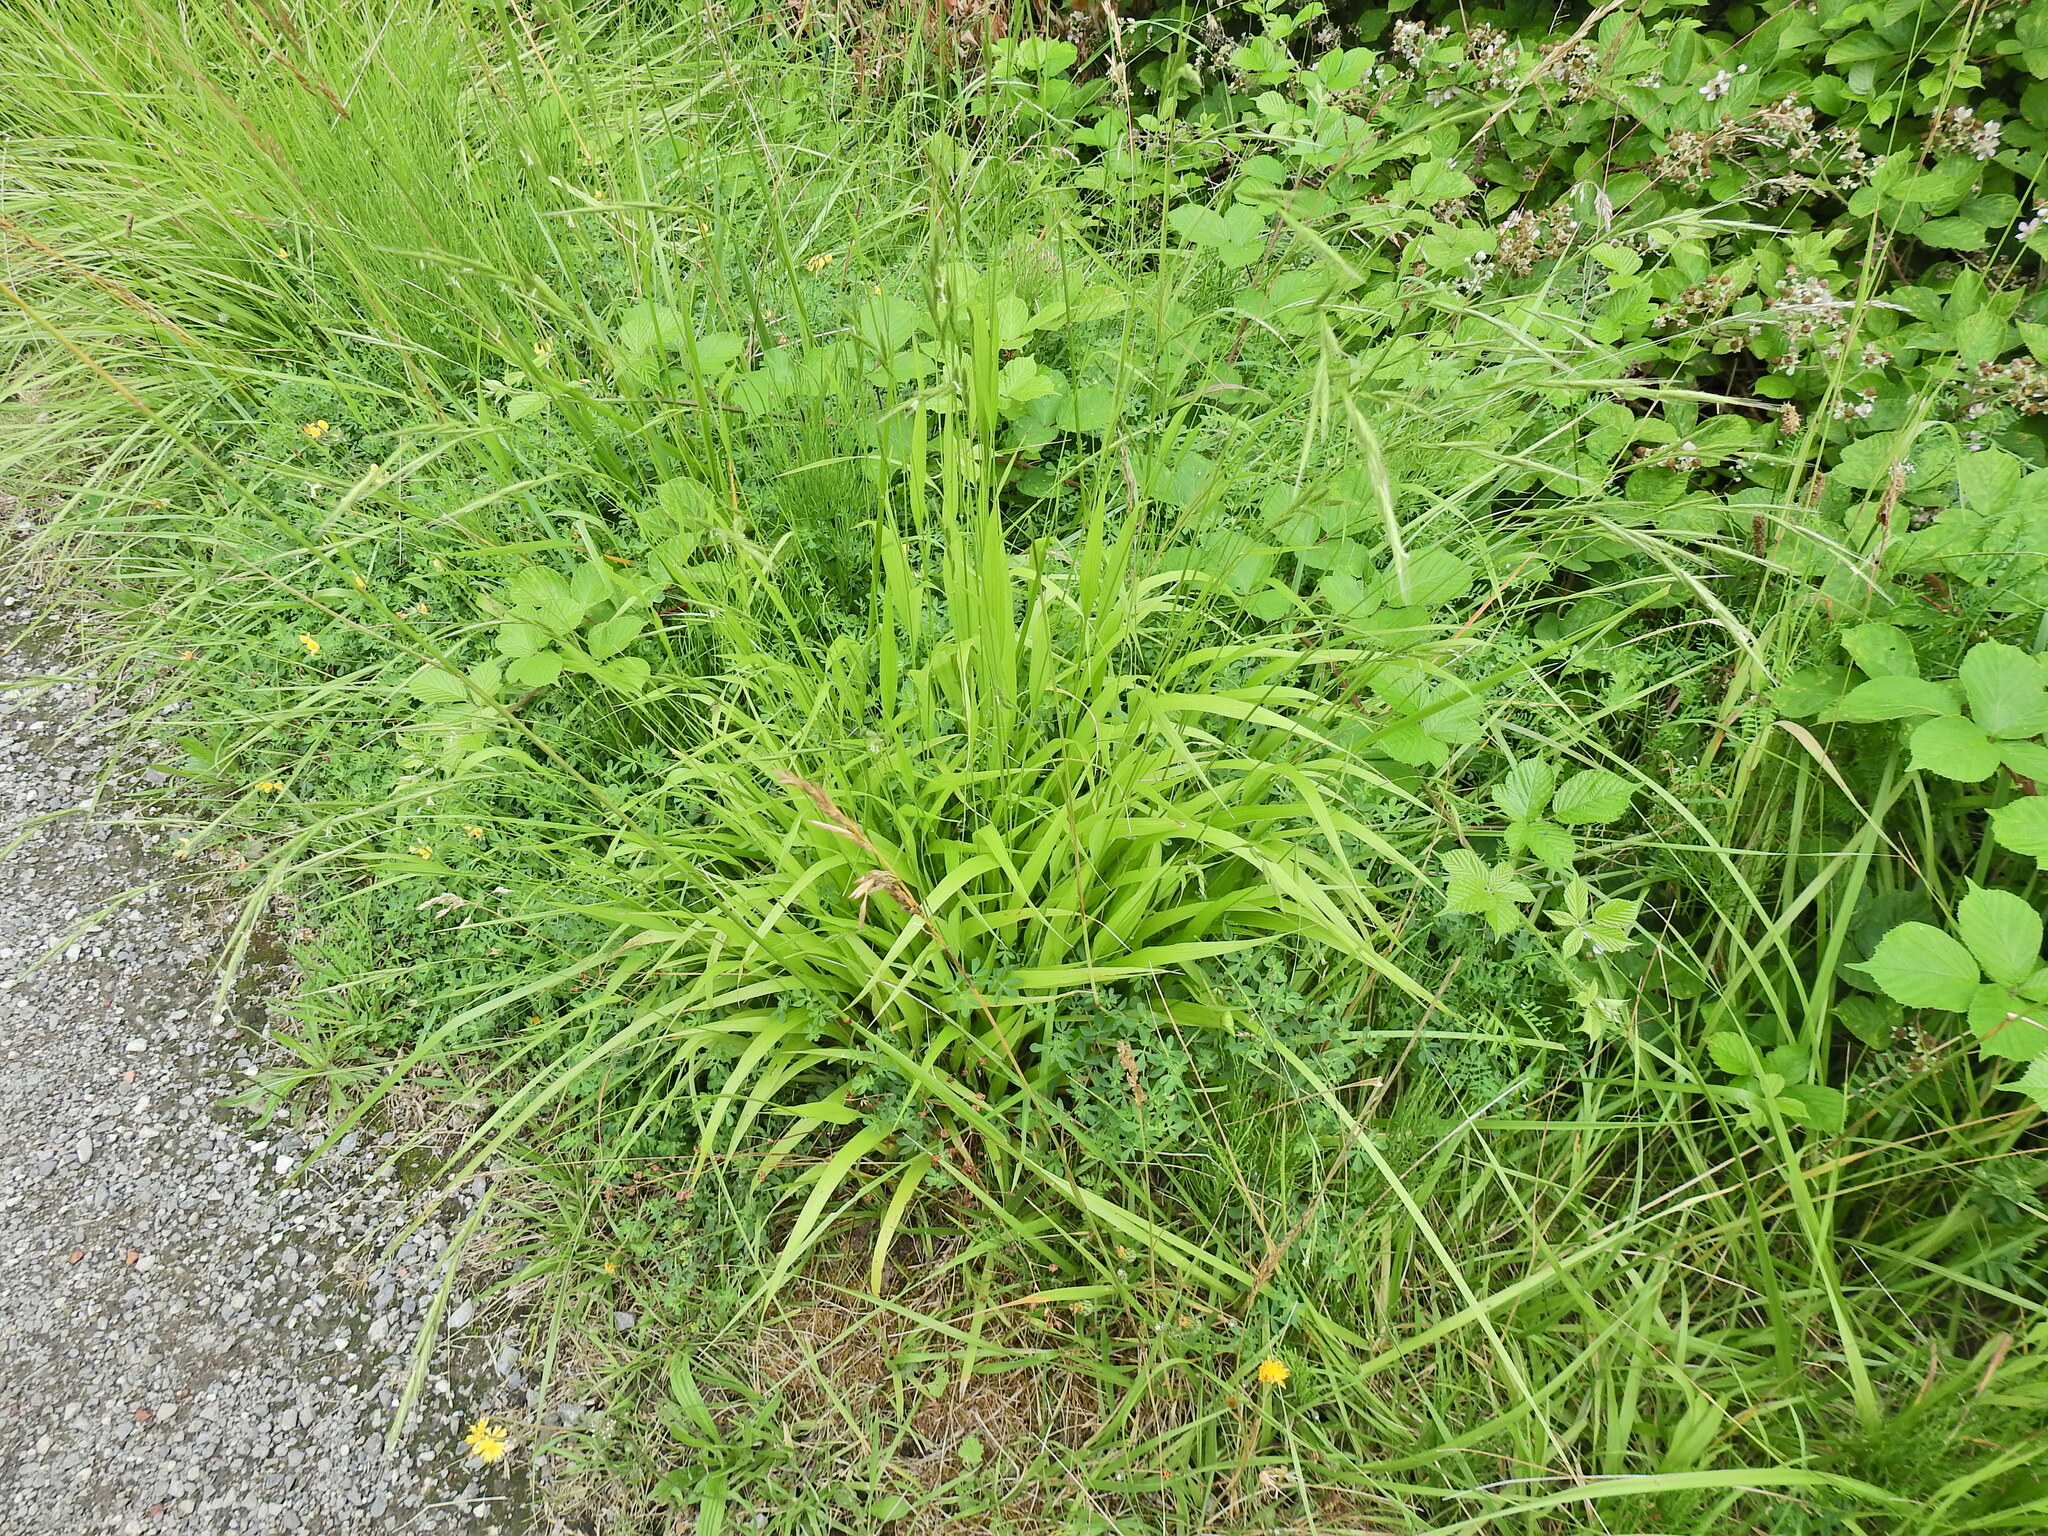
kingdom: Plantae
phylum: Tracheophyta
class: Liliopsida
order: Poales
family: Poaceae
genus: Brachypodium
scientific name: Brachypodium sylvaticum
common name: False-brome
